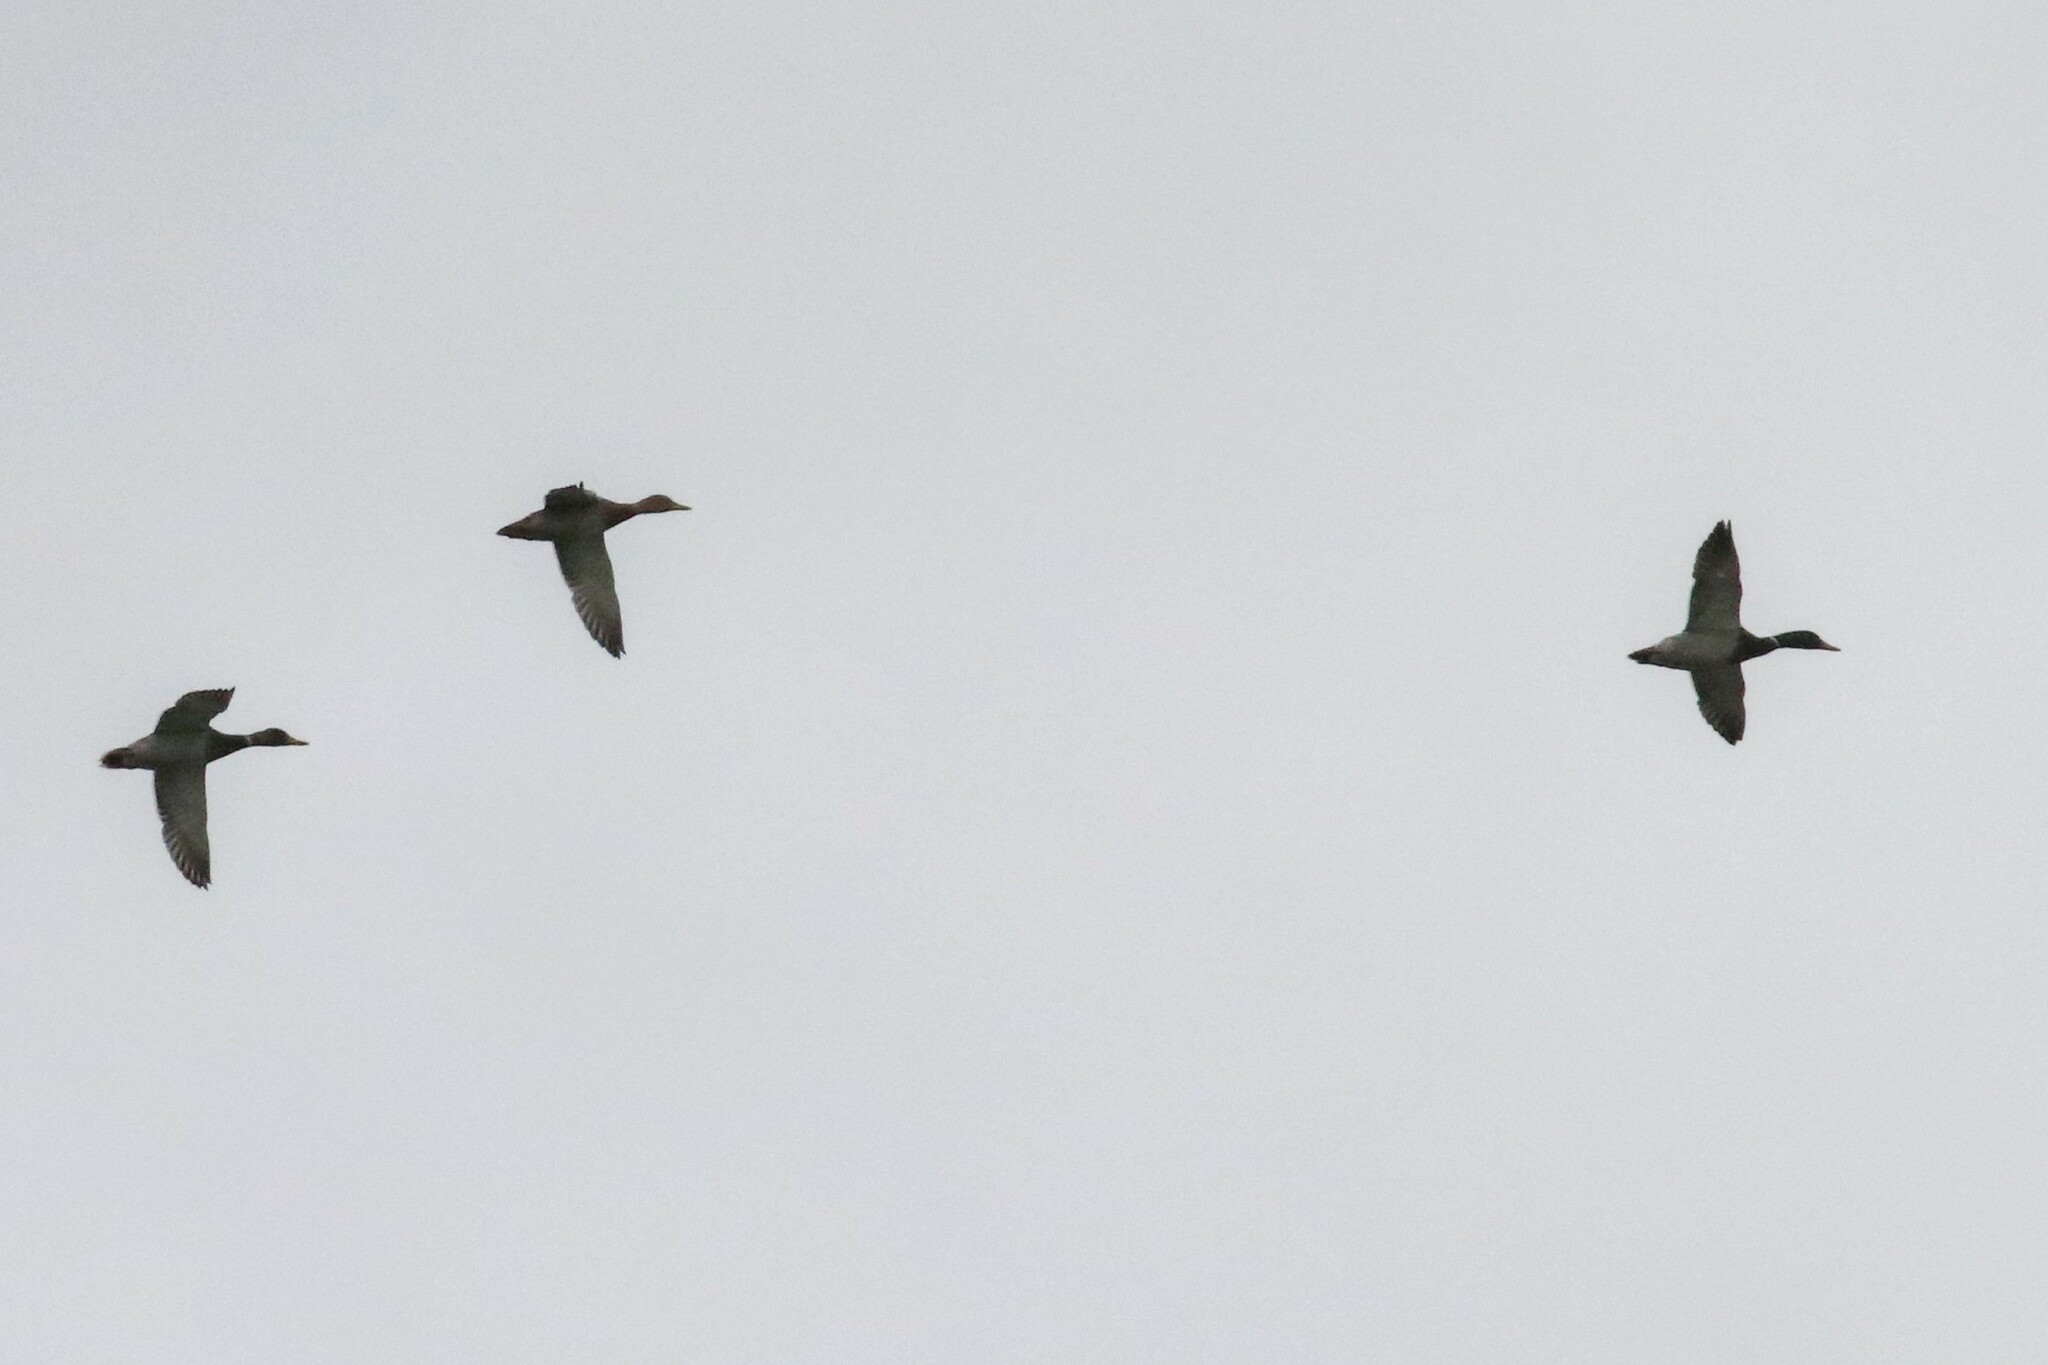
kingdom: Animalia
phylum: Chordata
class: Aves
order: Anseriformes
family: Anatidae
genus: Anas
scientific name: Anas platyrhynchos
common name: Mallard
